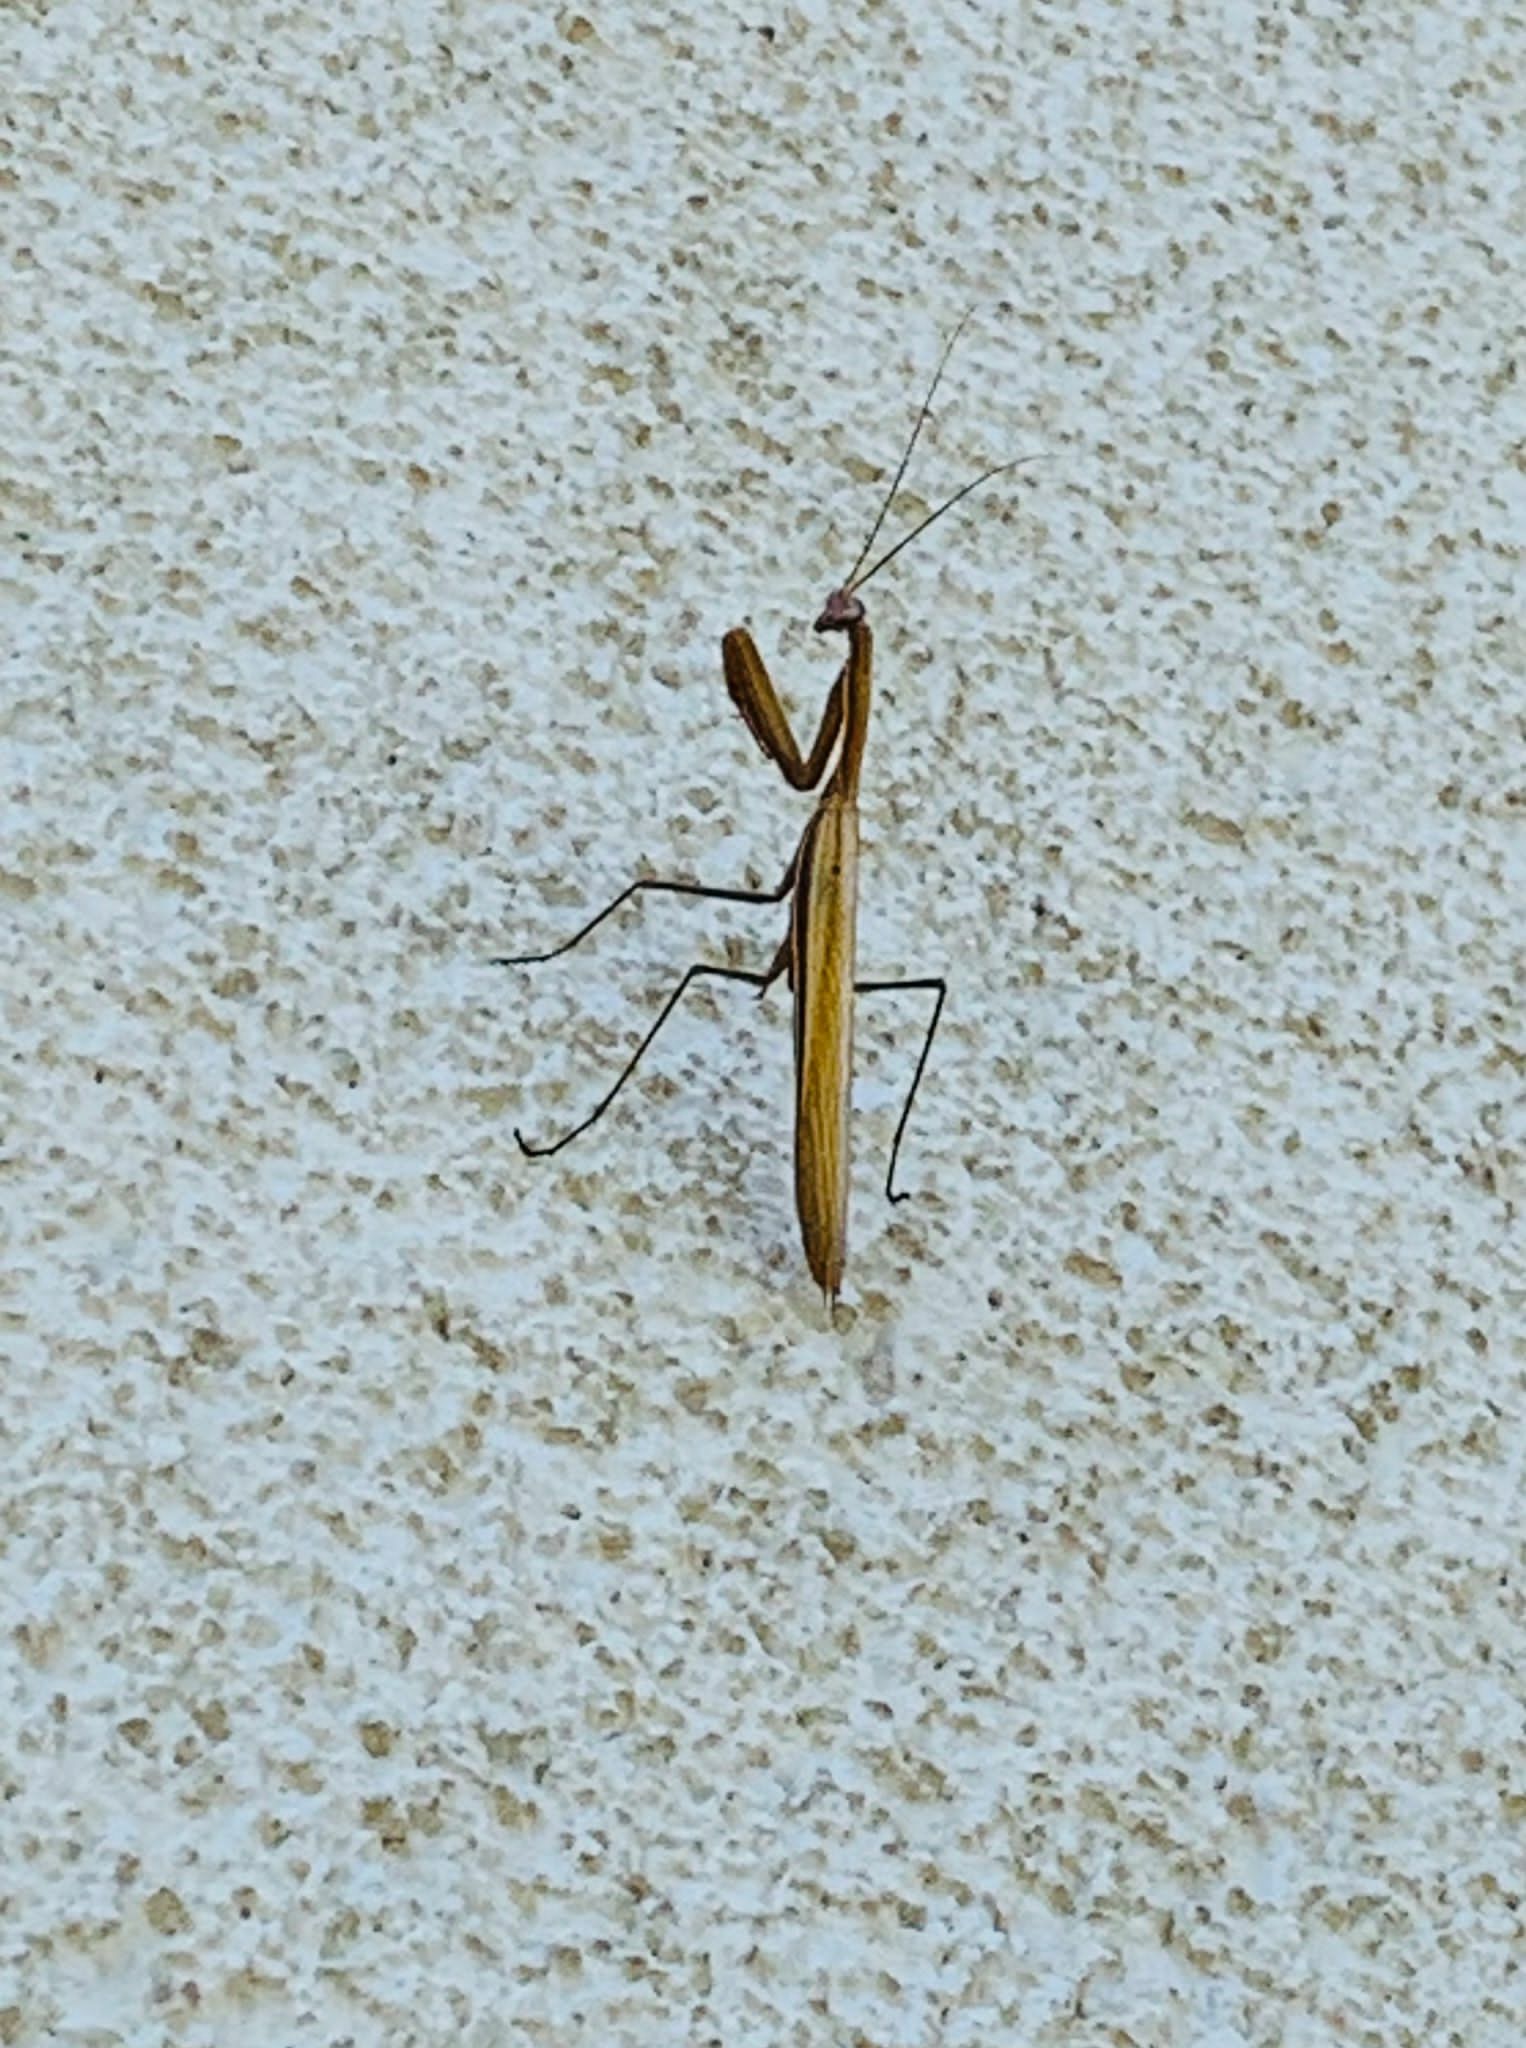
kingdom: Animalia
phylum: Arthropoda
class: Insecta
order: Mantodea
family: Mantidae
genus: Mantis
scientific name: Mantis religiosa
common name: Praying mantis
